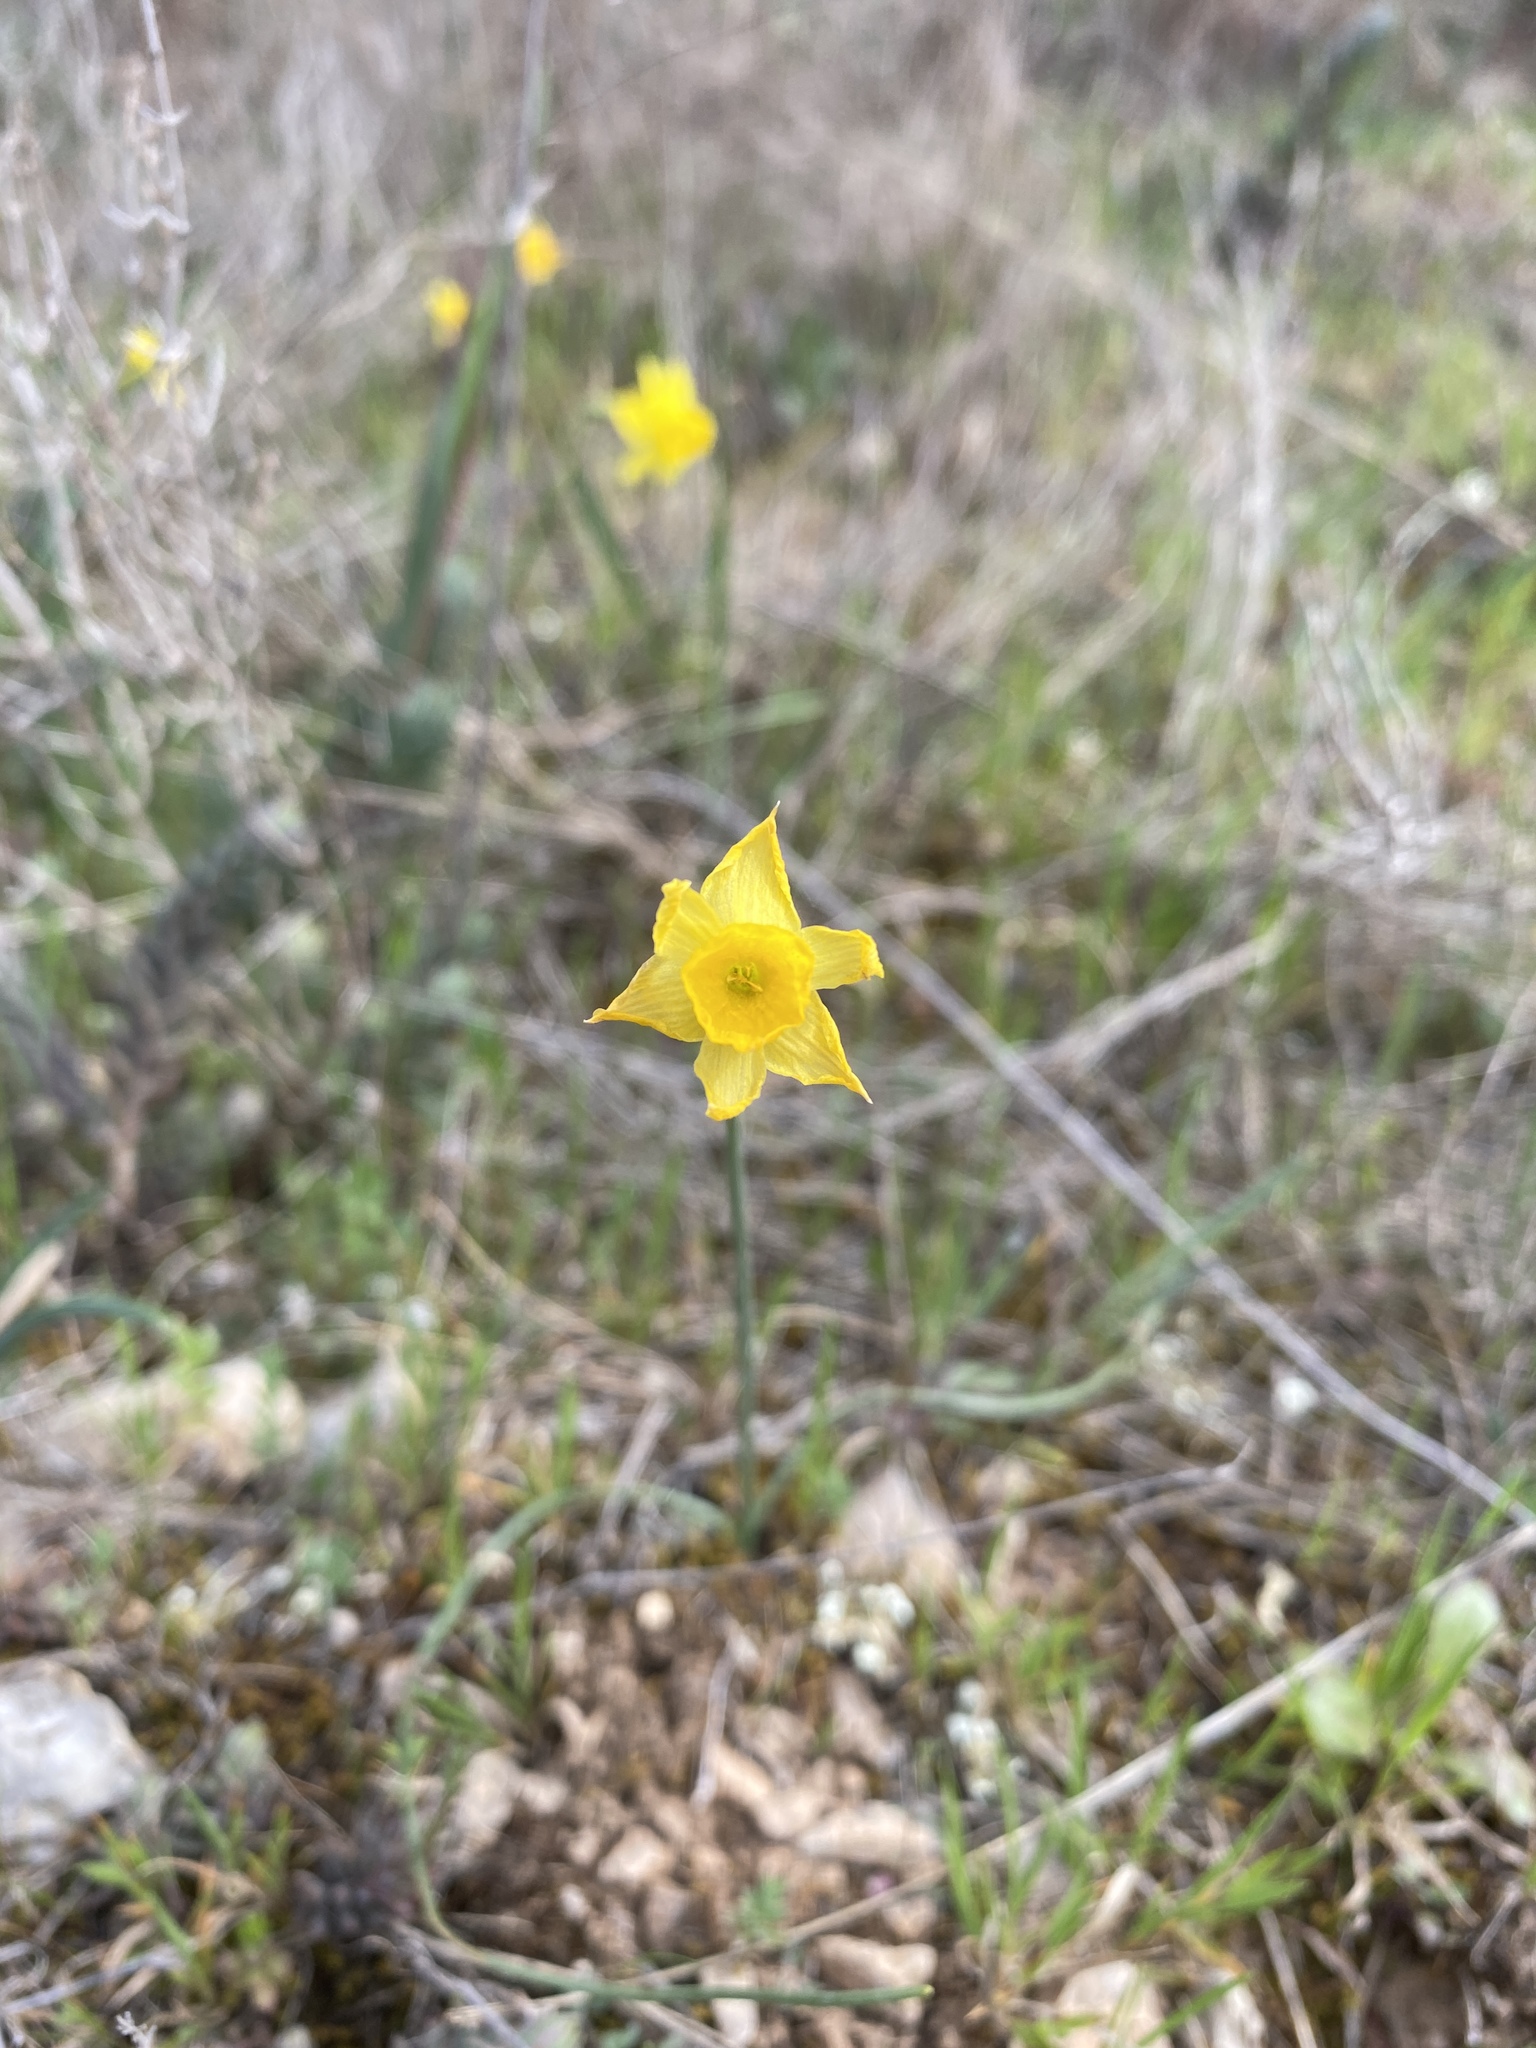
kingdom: Plantae
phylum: Tracheophyta
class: Liliopsida
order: Asparagales
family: Amaryllidaceae
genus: Narcissus
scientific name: Narcissus assoanus
